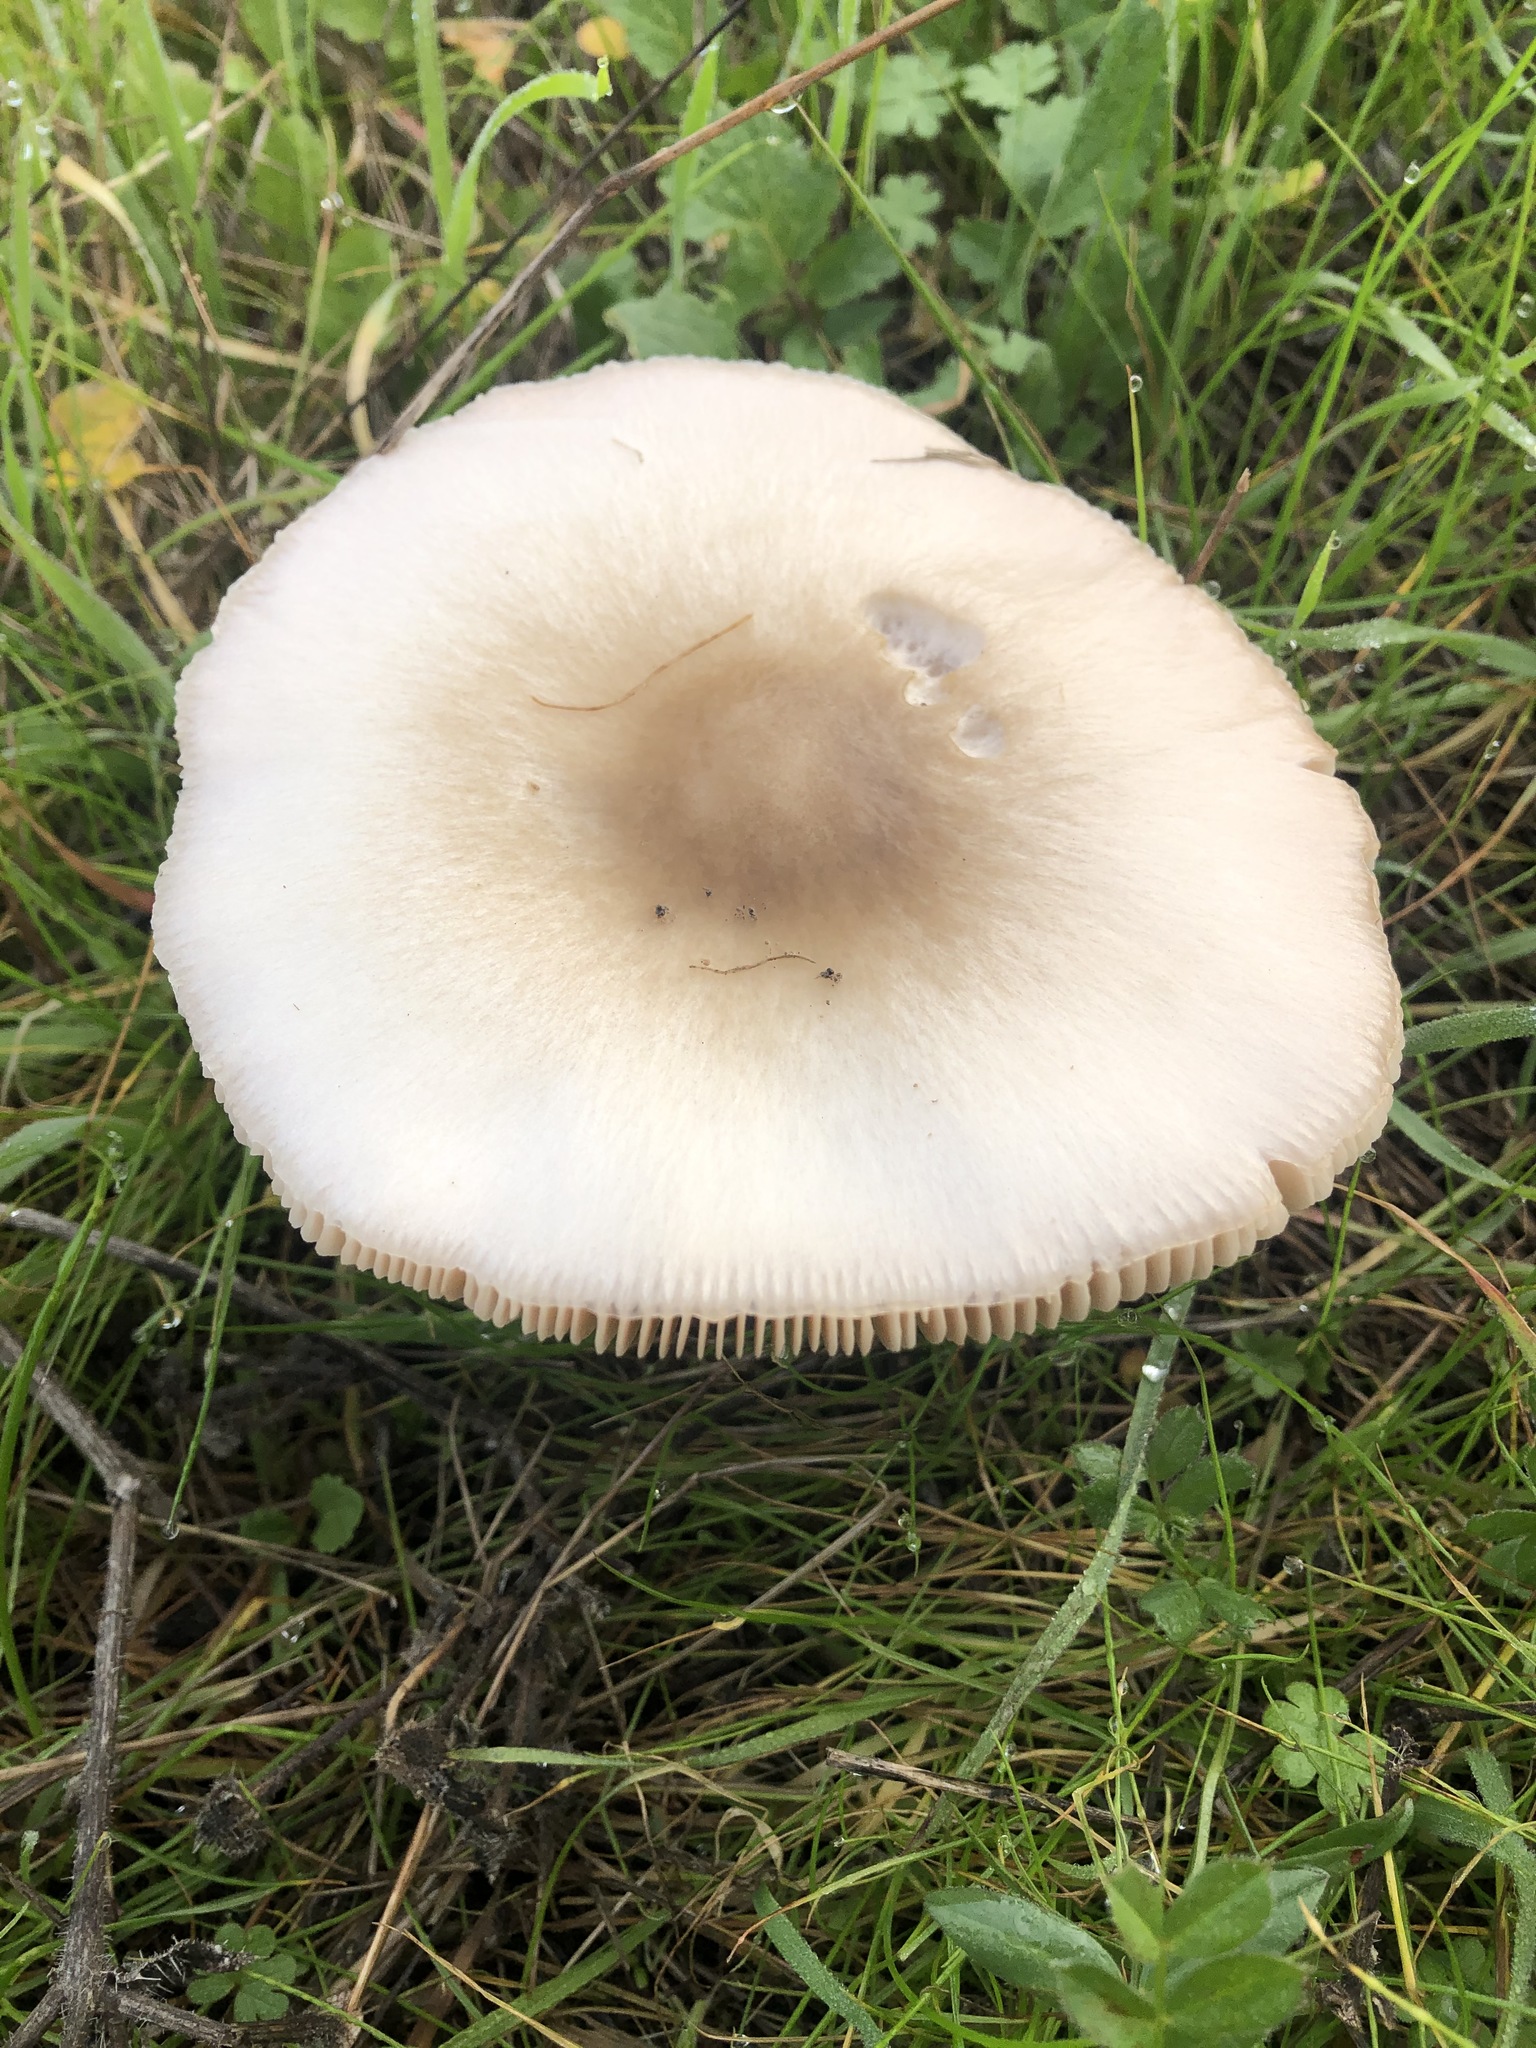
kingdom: Fungi
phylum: Basidiomycota
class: Agaricomycetes
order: Agaricales
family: Pluteaceae
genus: Volvopluteus
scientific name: Volvopluteus gloiocephalus
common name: Stubble rosegill
